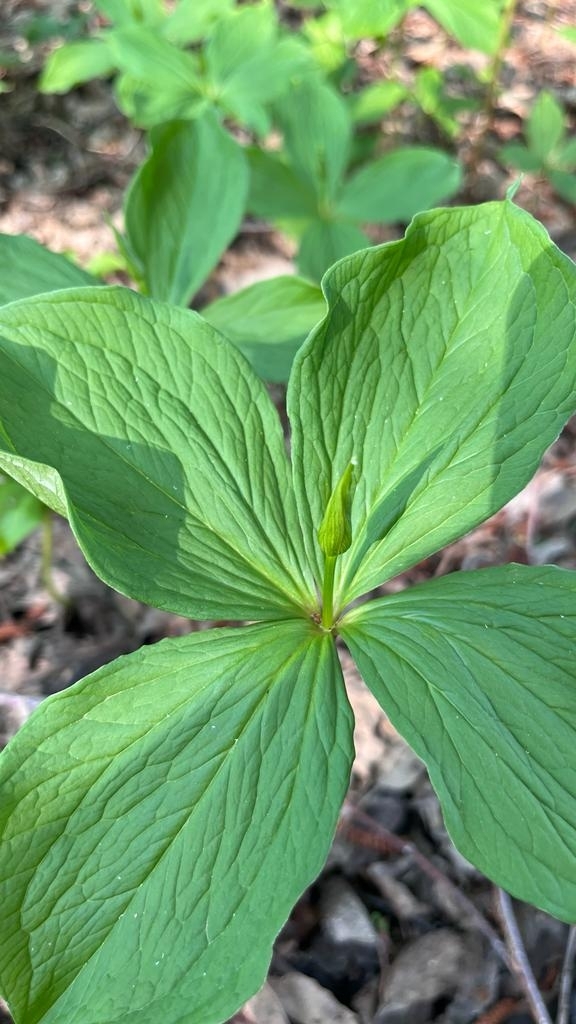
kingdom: Plantae
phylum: Tracheophyta
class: Liliopsida
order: Liliales
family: Melanthiaceae
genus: Paris
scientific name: Paris quadrifolia
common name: Herb-paris
